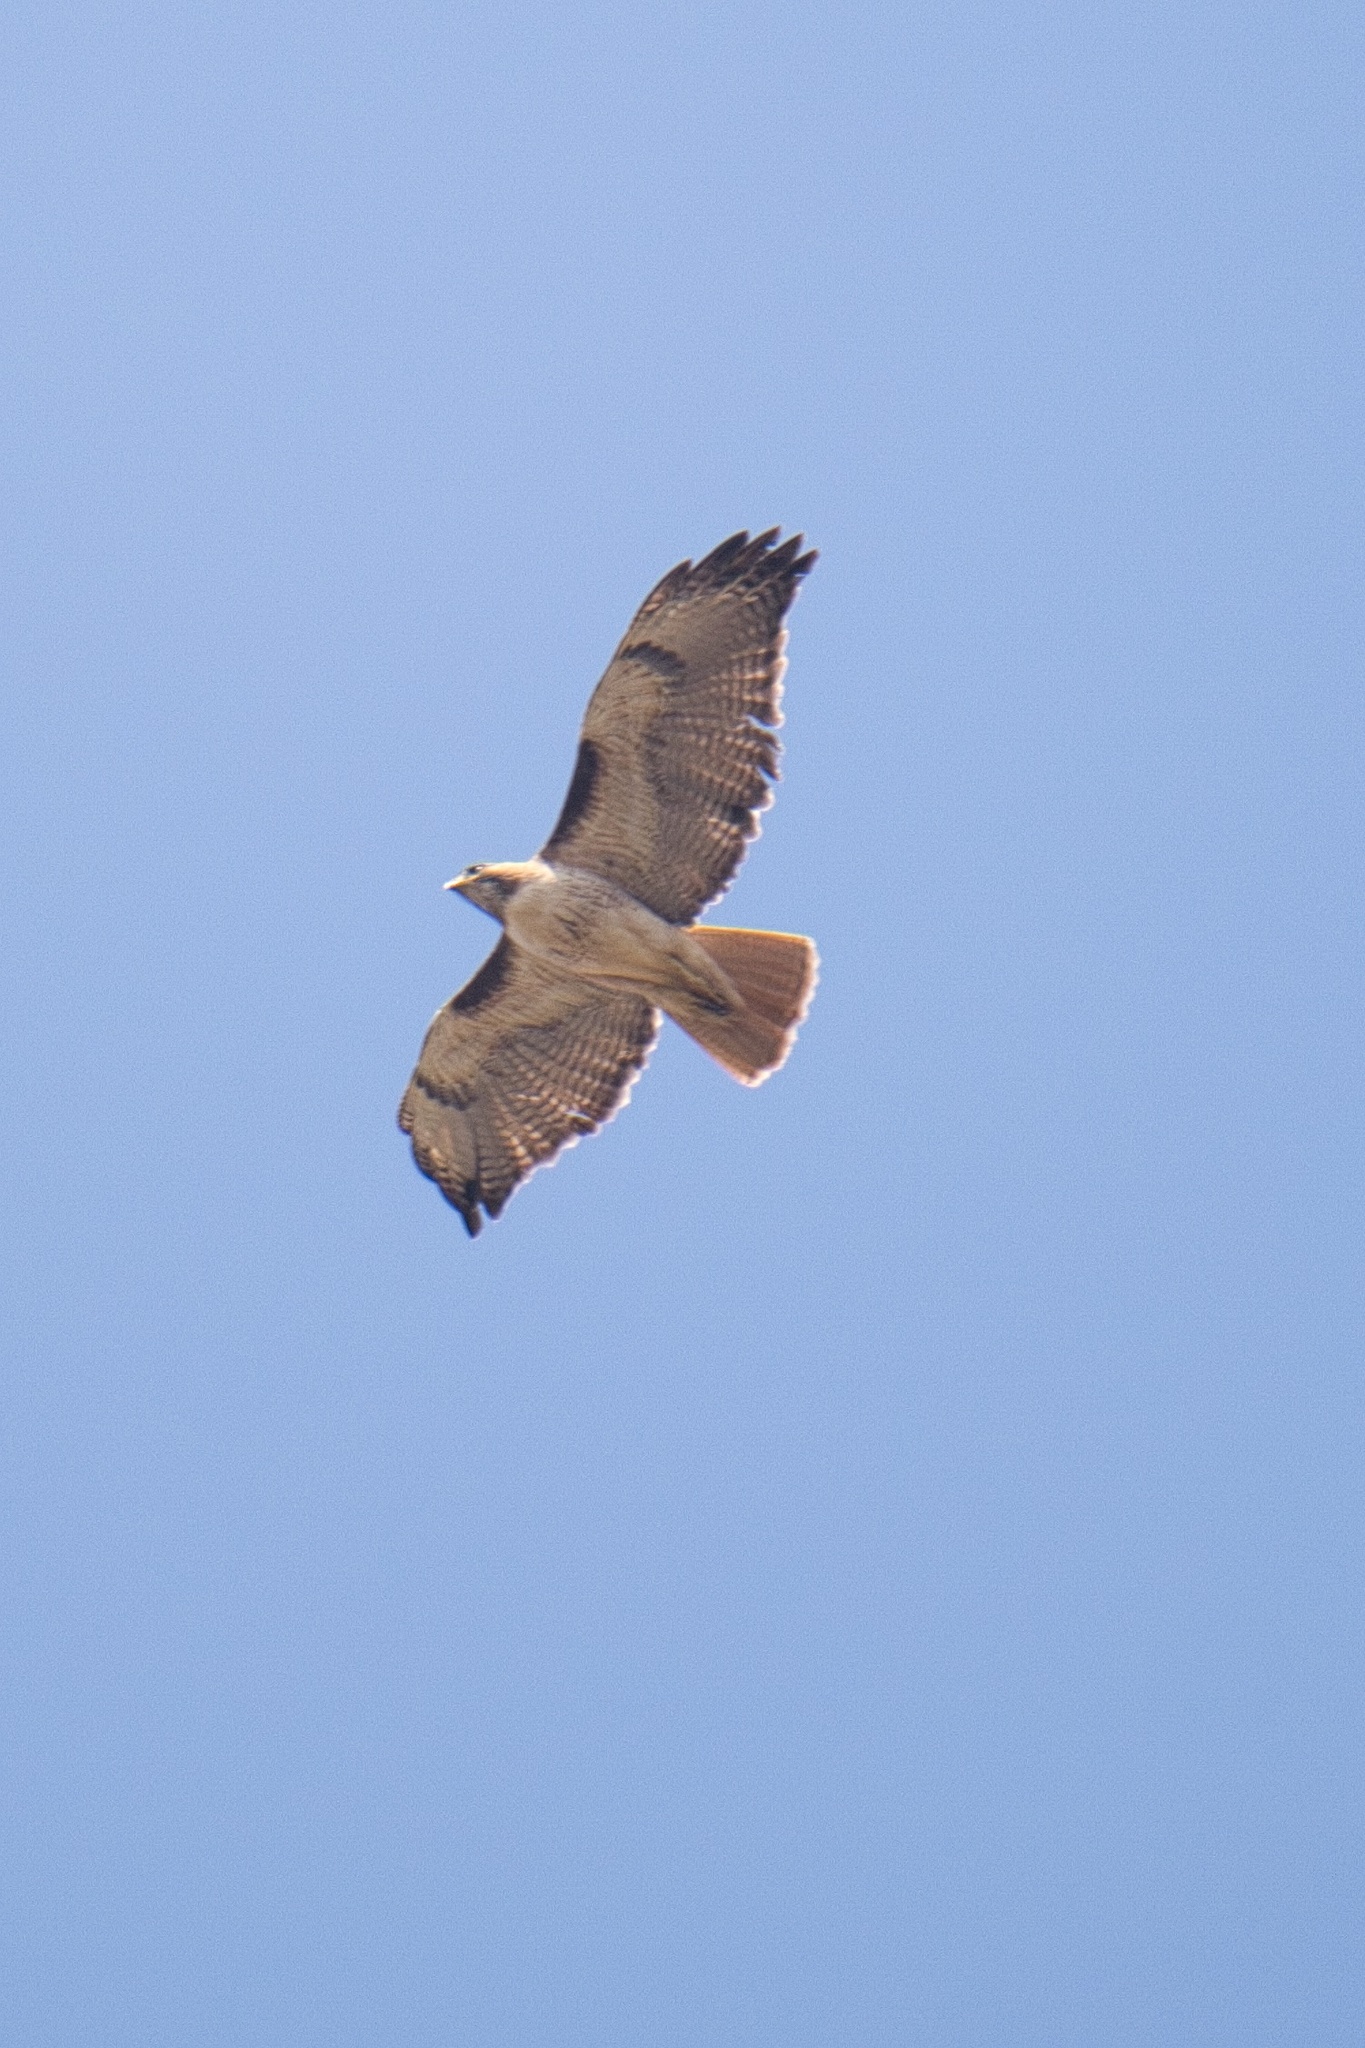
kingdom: Animalia
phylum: Chordata
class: Aves
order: Accipitriformes
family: Accipitridae
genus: Buteo
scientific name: Buteo jamaicensis
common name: Red-tailed hawk
